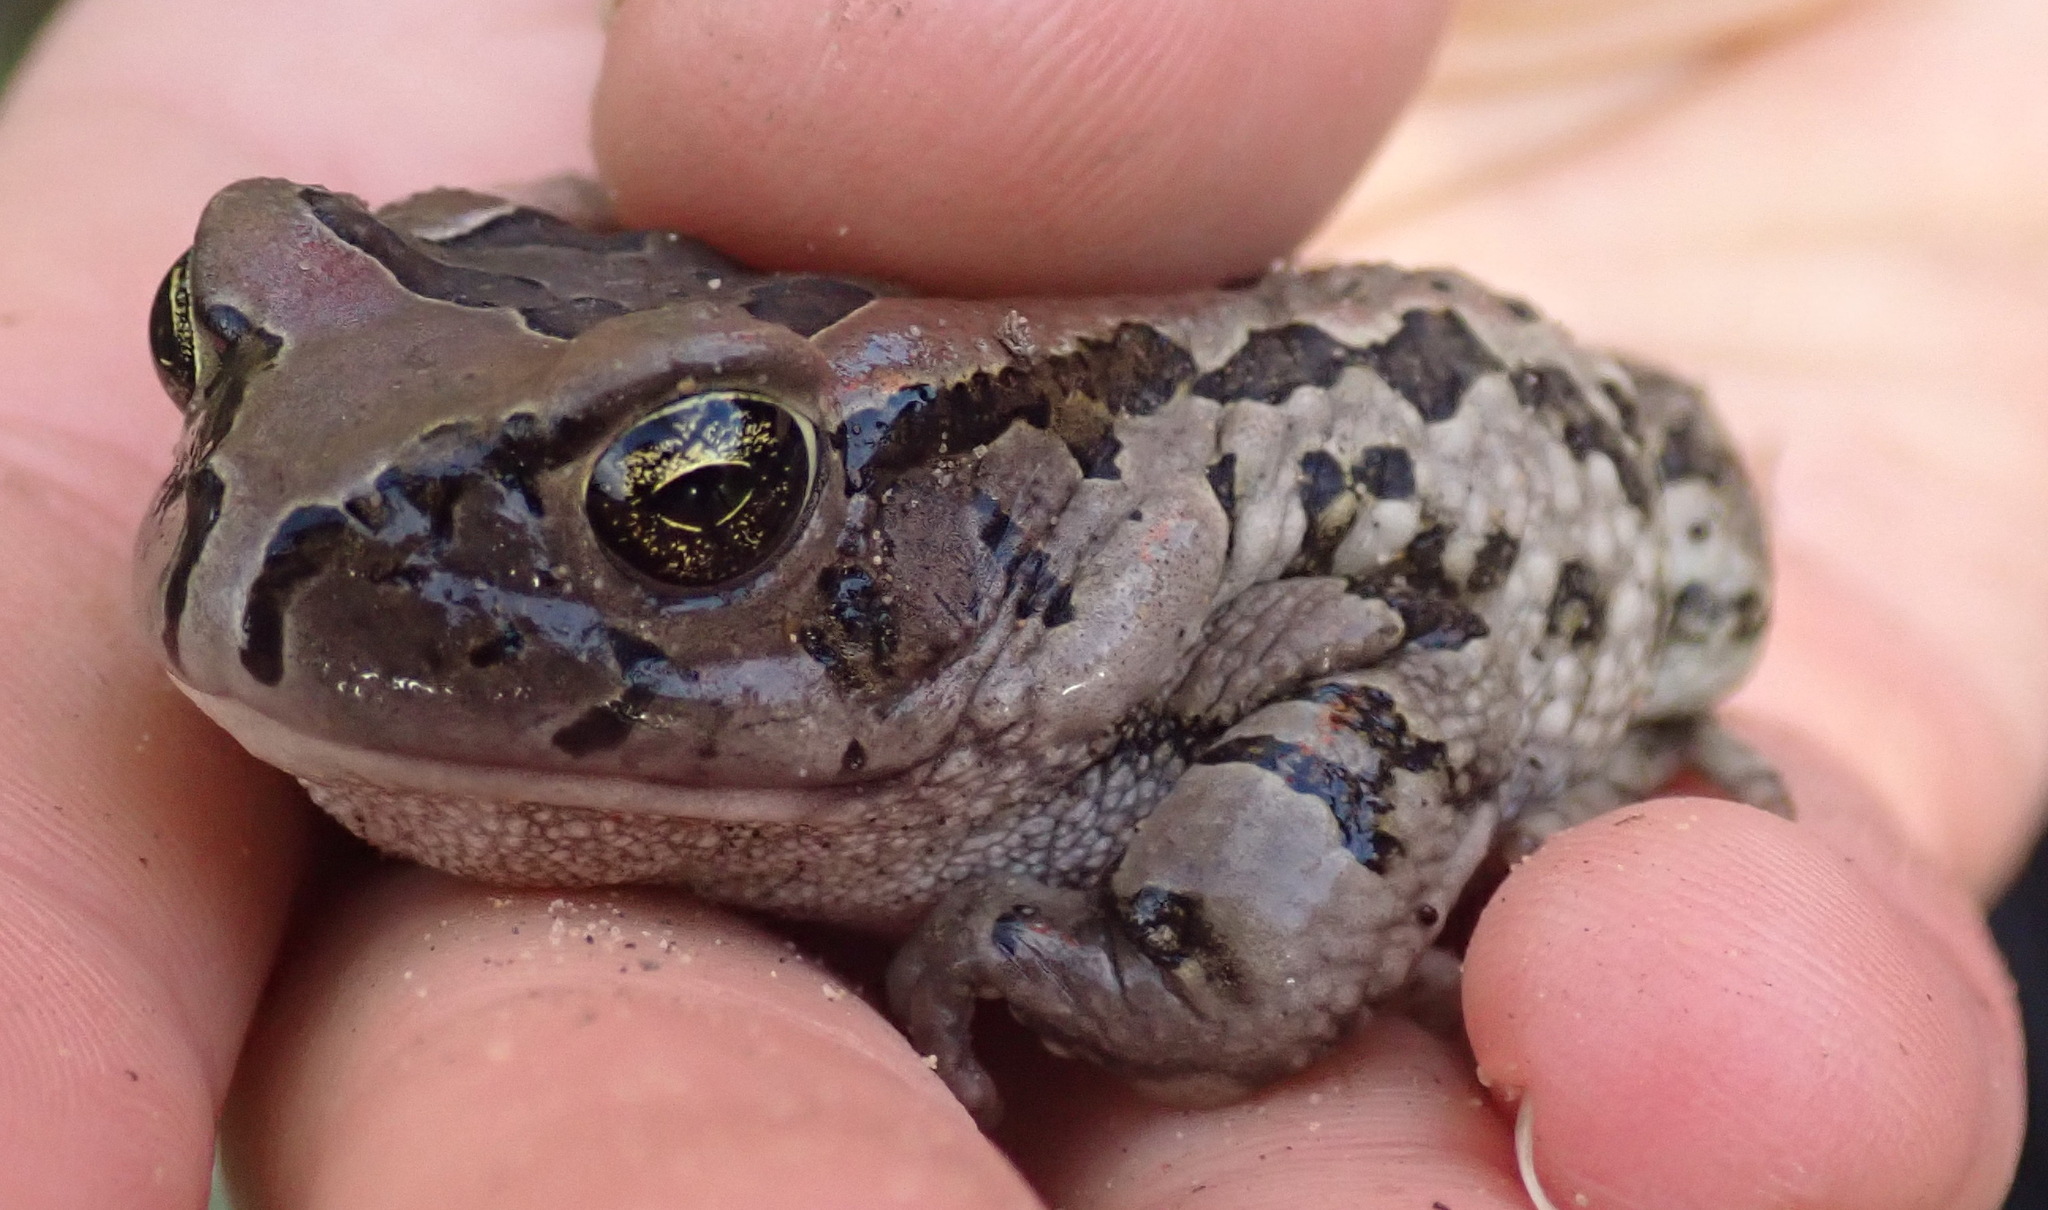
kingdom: Animalia
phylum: Chordata
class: Amphibia
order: Anura
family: Bufonidae
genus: Sclerophrys
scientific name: Sclerophrys capensis
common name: Ranger’s toad
